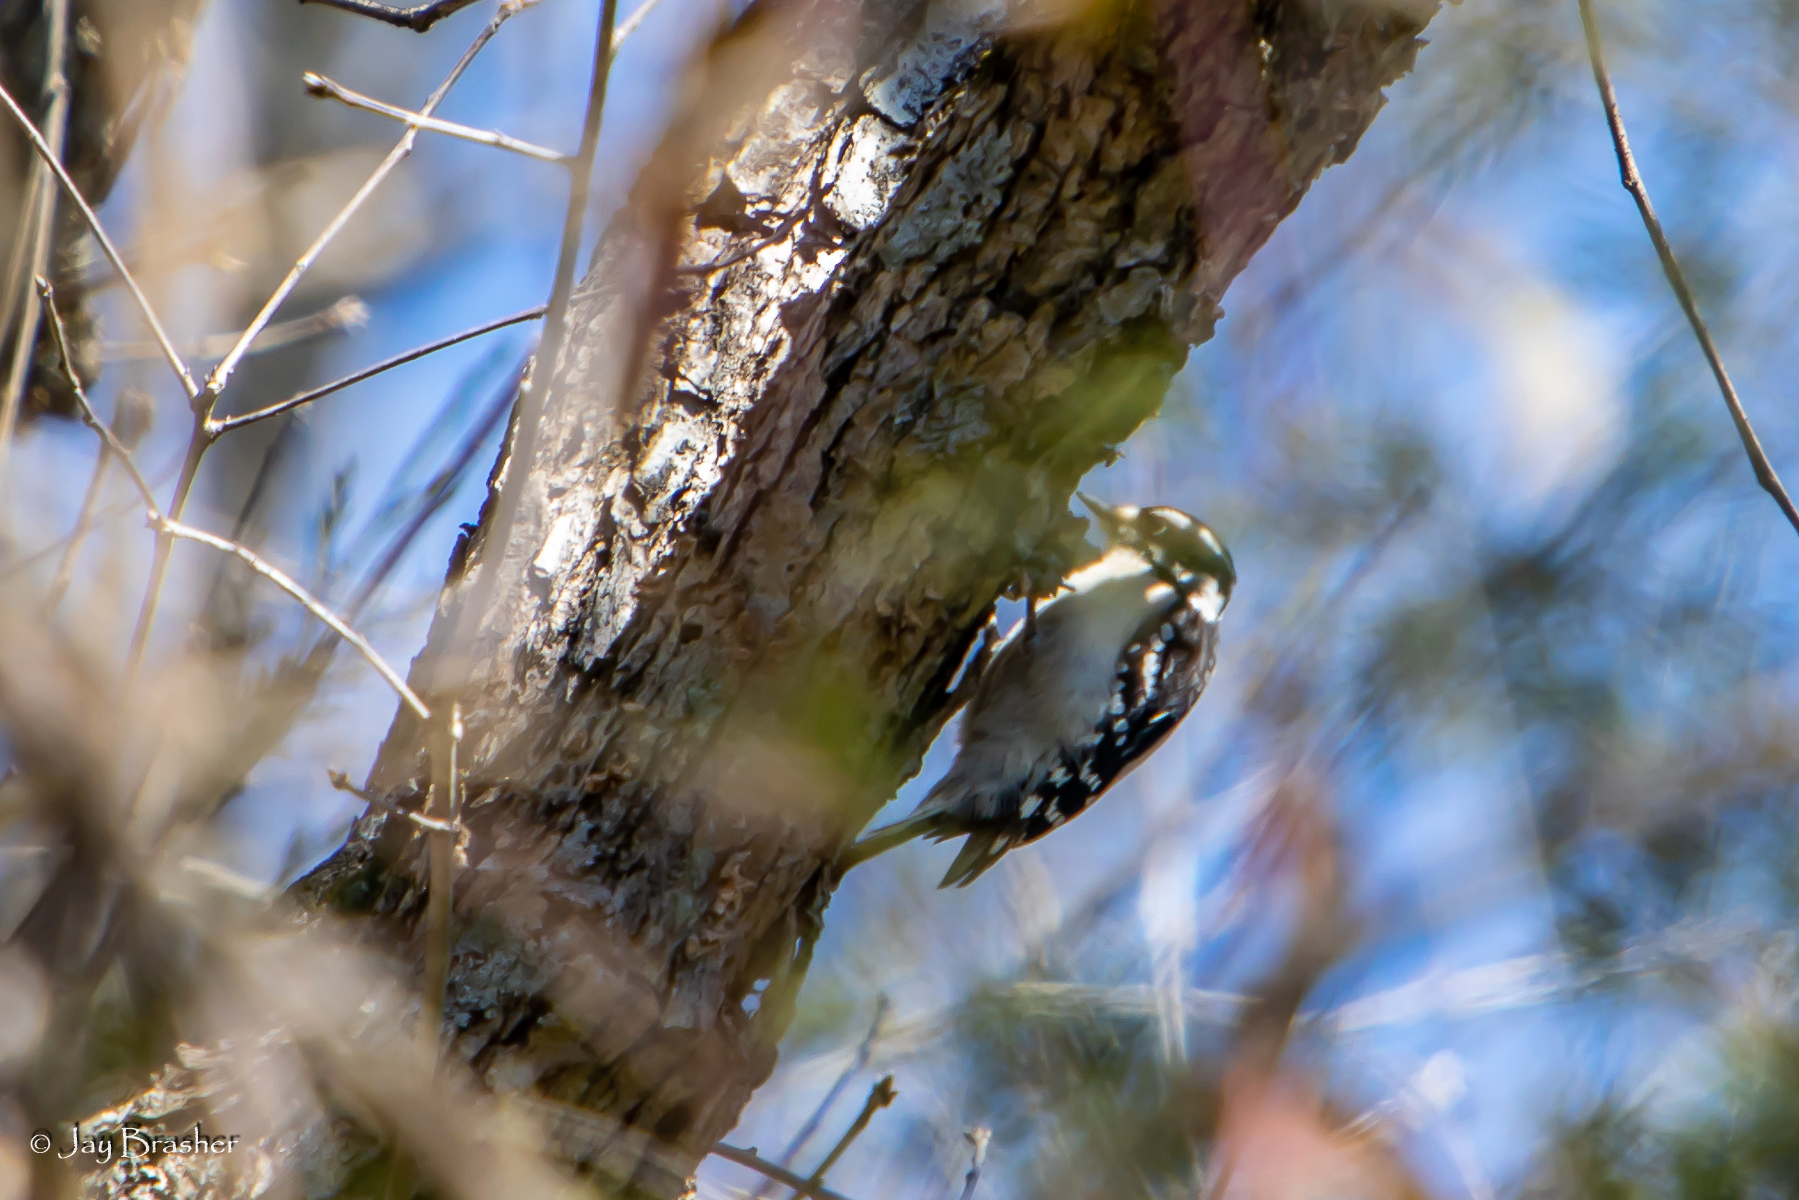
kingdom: Animalia
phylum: Chordata
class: Aves
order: Piciformes
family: Picidae
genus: Dryobates
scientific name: Dryobates pubescens
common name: Downy woodpecker
